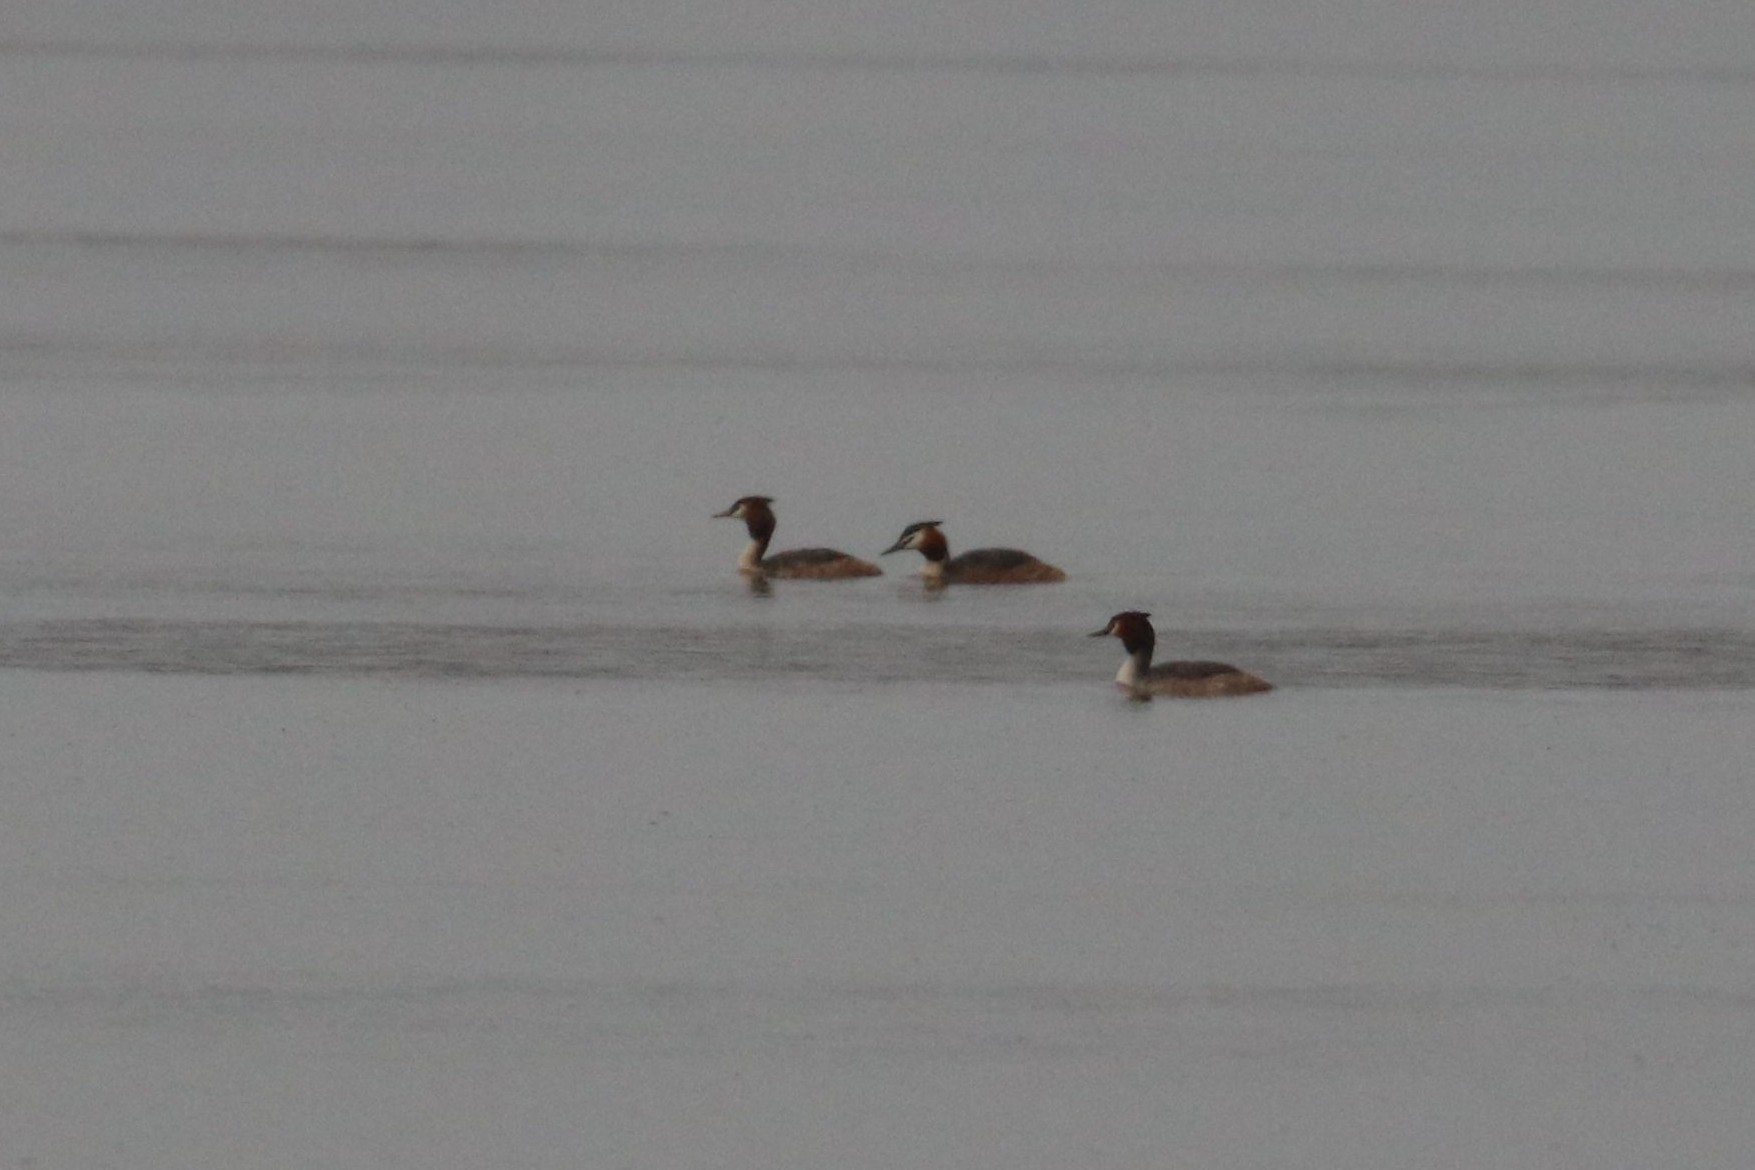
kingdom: Animalia
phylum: Chordata
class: Aves
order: Podicipediformes
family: Podicipedidae
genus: Podiceps
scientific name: Podiceps cristatus
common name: Great crested grebe
